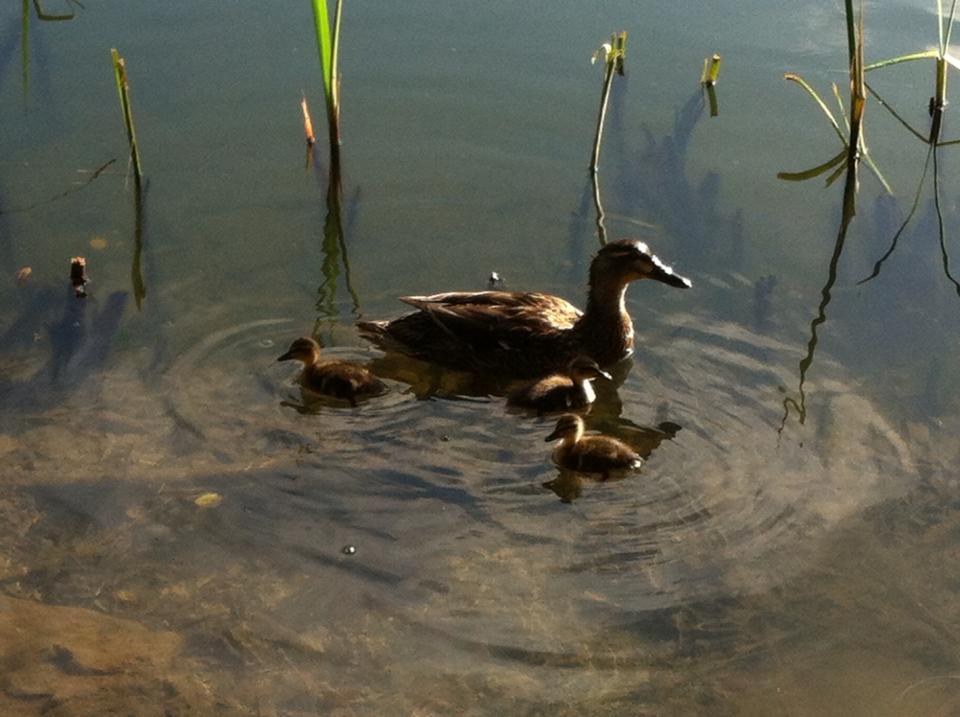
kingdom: Animalia
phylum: Chordata
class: Aves
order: Anseriformes
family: Anatidae
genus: Anas
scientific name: Anas platyrhynchos
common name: Mallard
